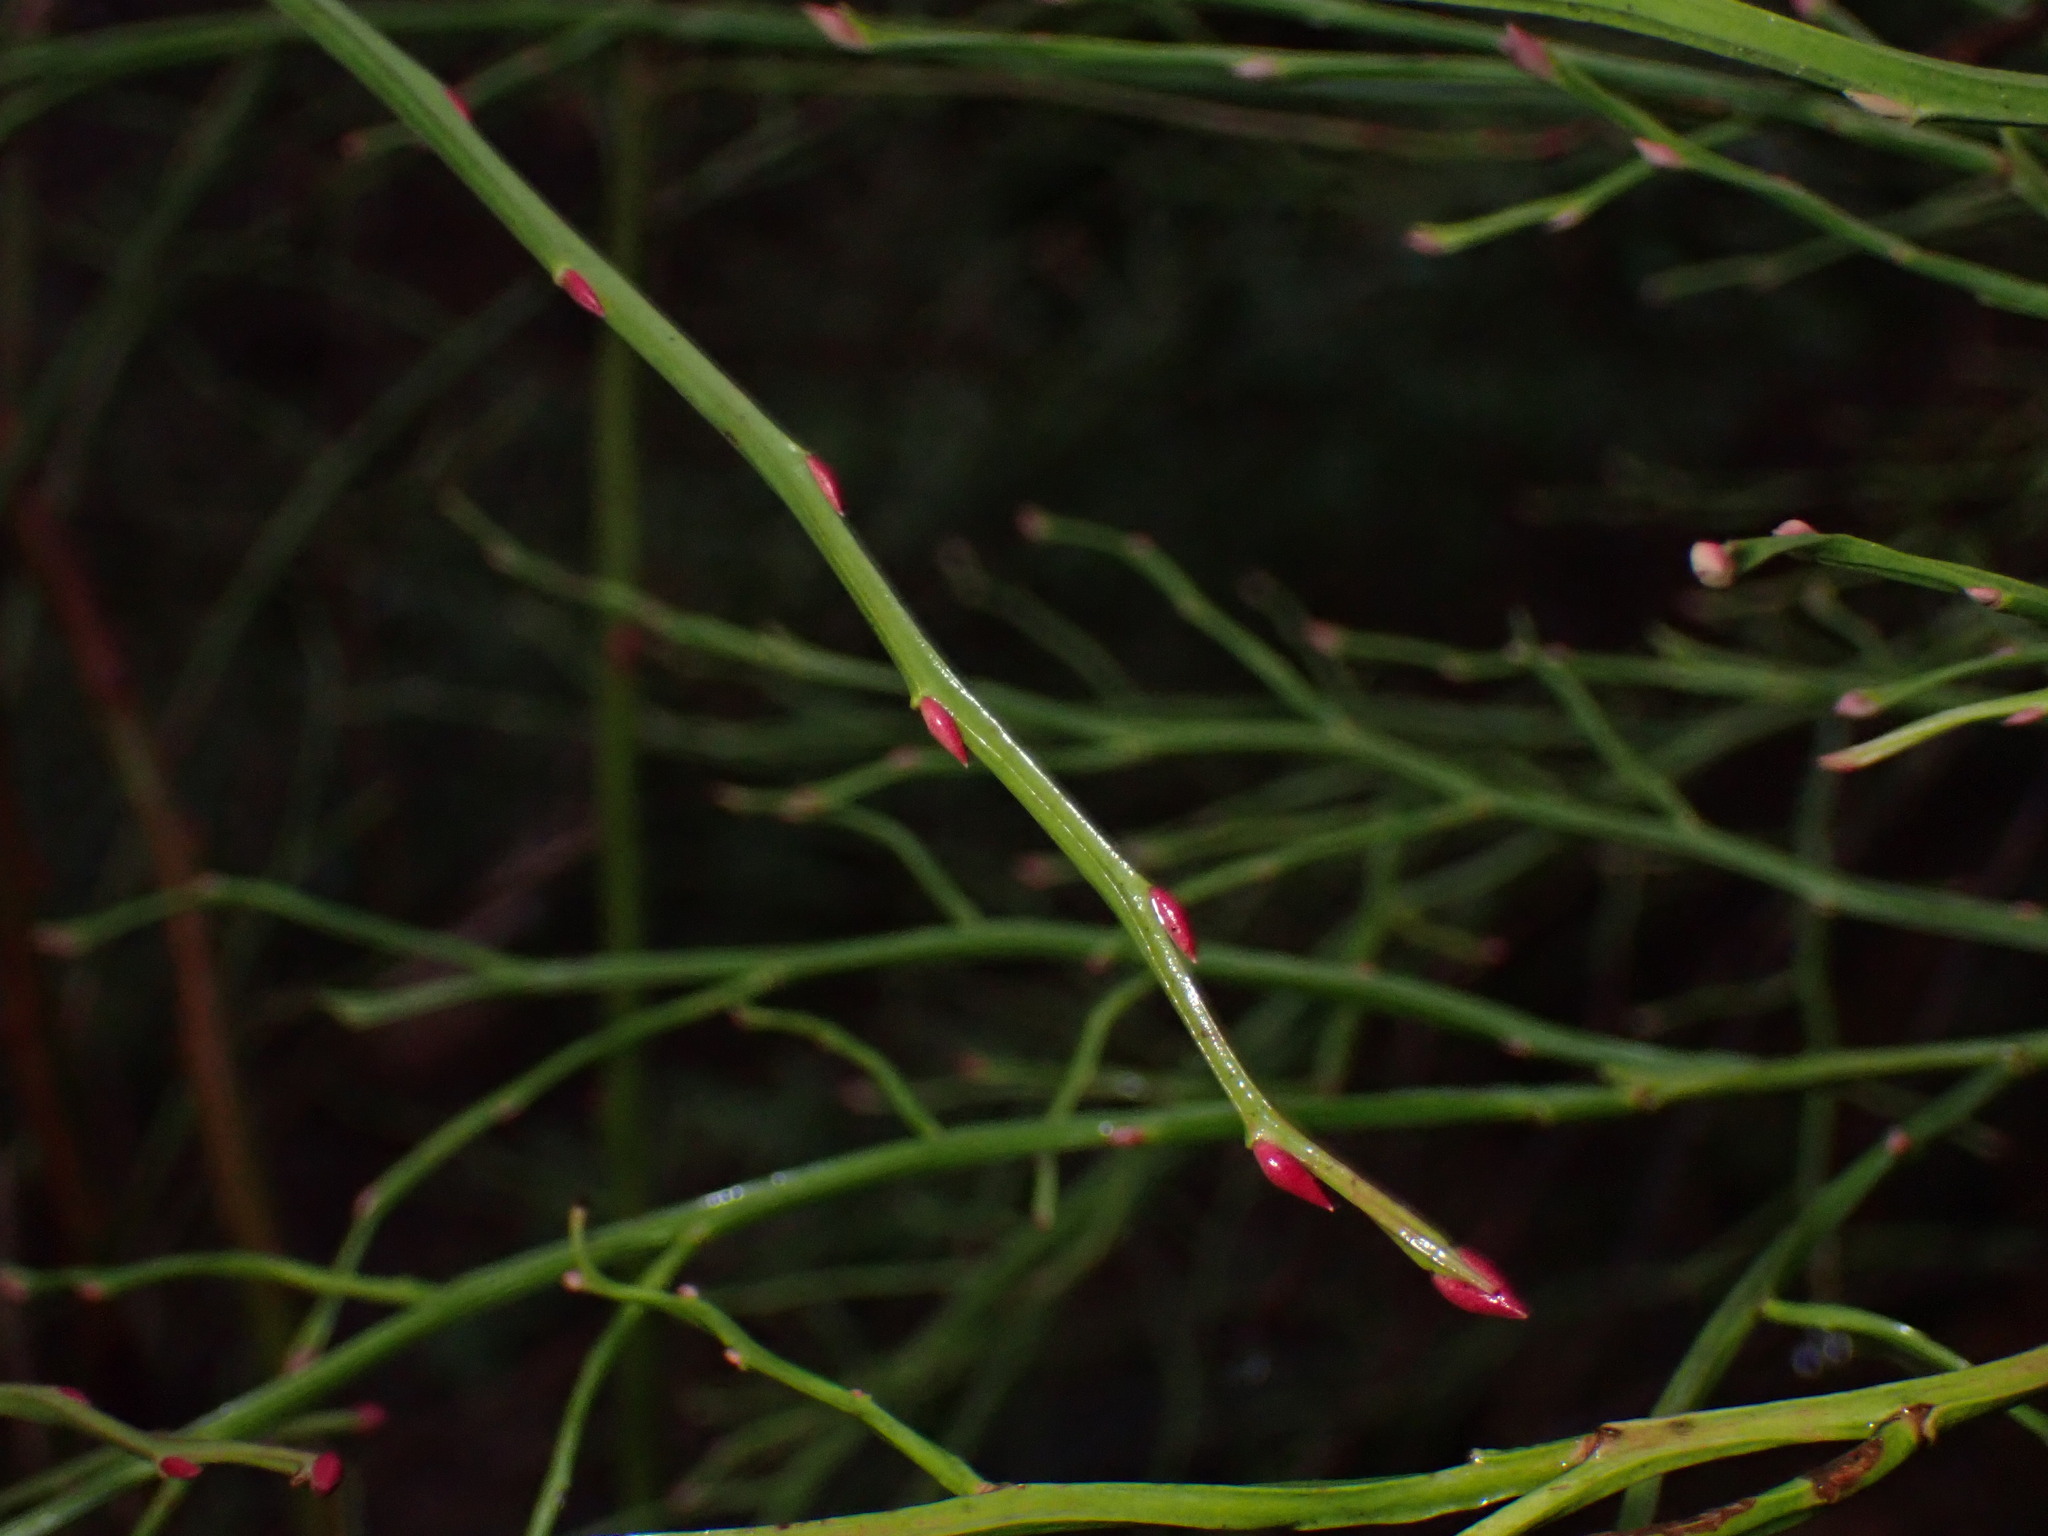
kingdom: Plantae
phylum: Tracheophyta
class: Magnoliopsida
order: Ericales
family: Ericaceae
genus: Vaccinium
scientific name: Vaccinium parvifolium
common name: Red-huckleberry
